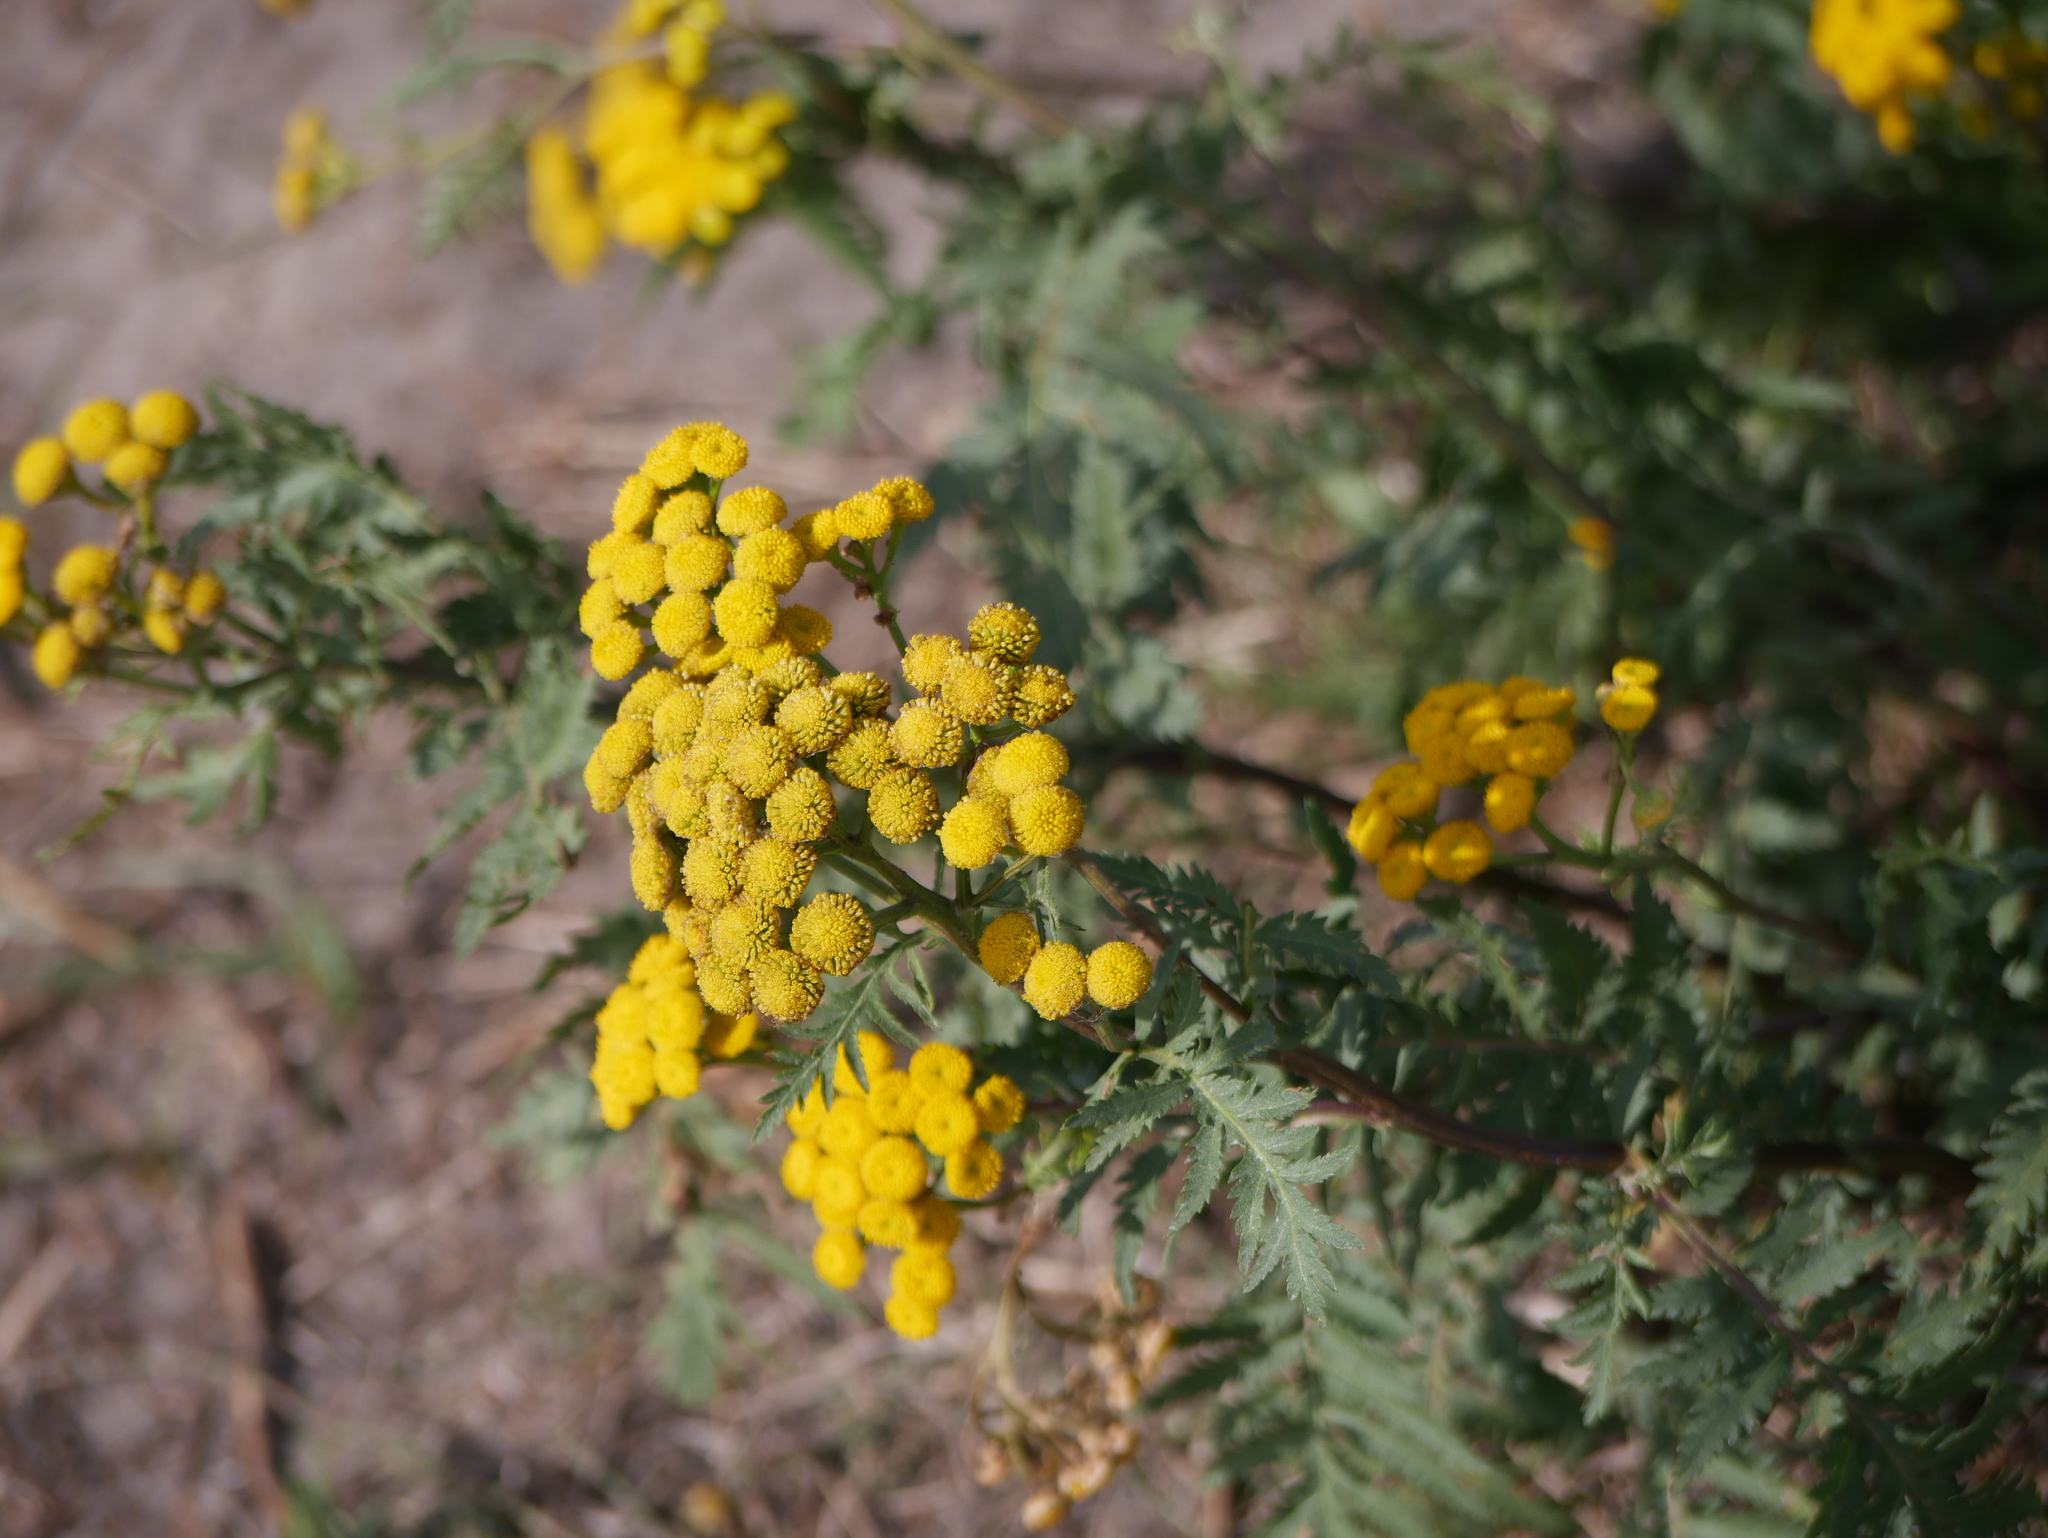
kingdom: Plantae
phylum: Tracheophyta
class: Magnoliopsida
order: Asterales
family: Asteraceae
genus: Tanacetum
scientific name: Tanacetum vulgare
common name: Common tansy
